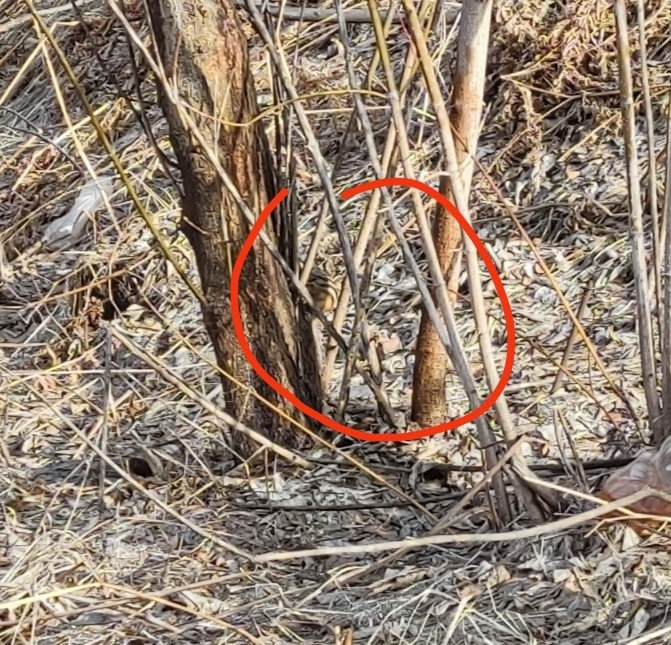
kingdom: Animalia
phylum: Chordata
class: Mammalia
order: Rodentia
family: Sciuridae
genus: Tamias
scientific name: Tamias sibiricus
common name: Siberian chipmunk
